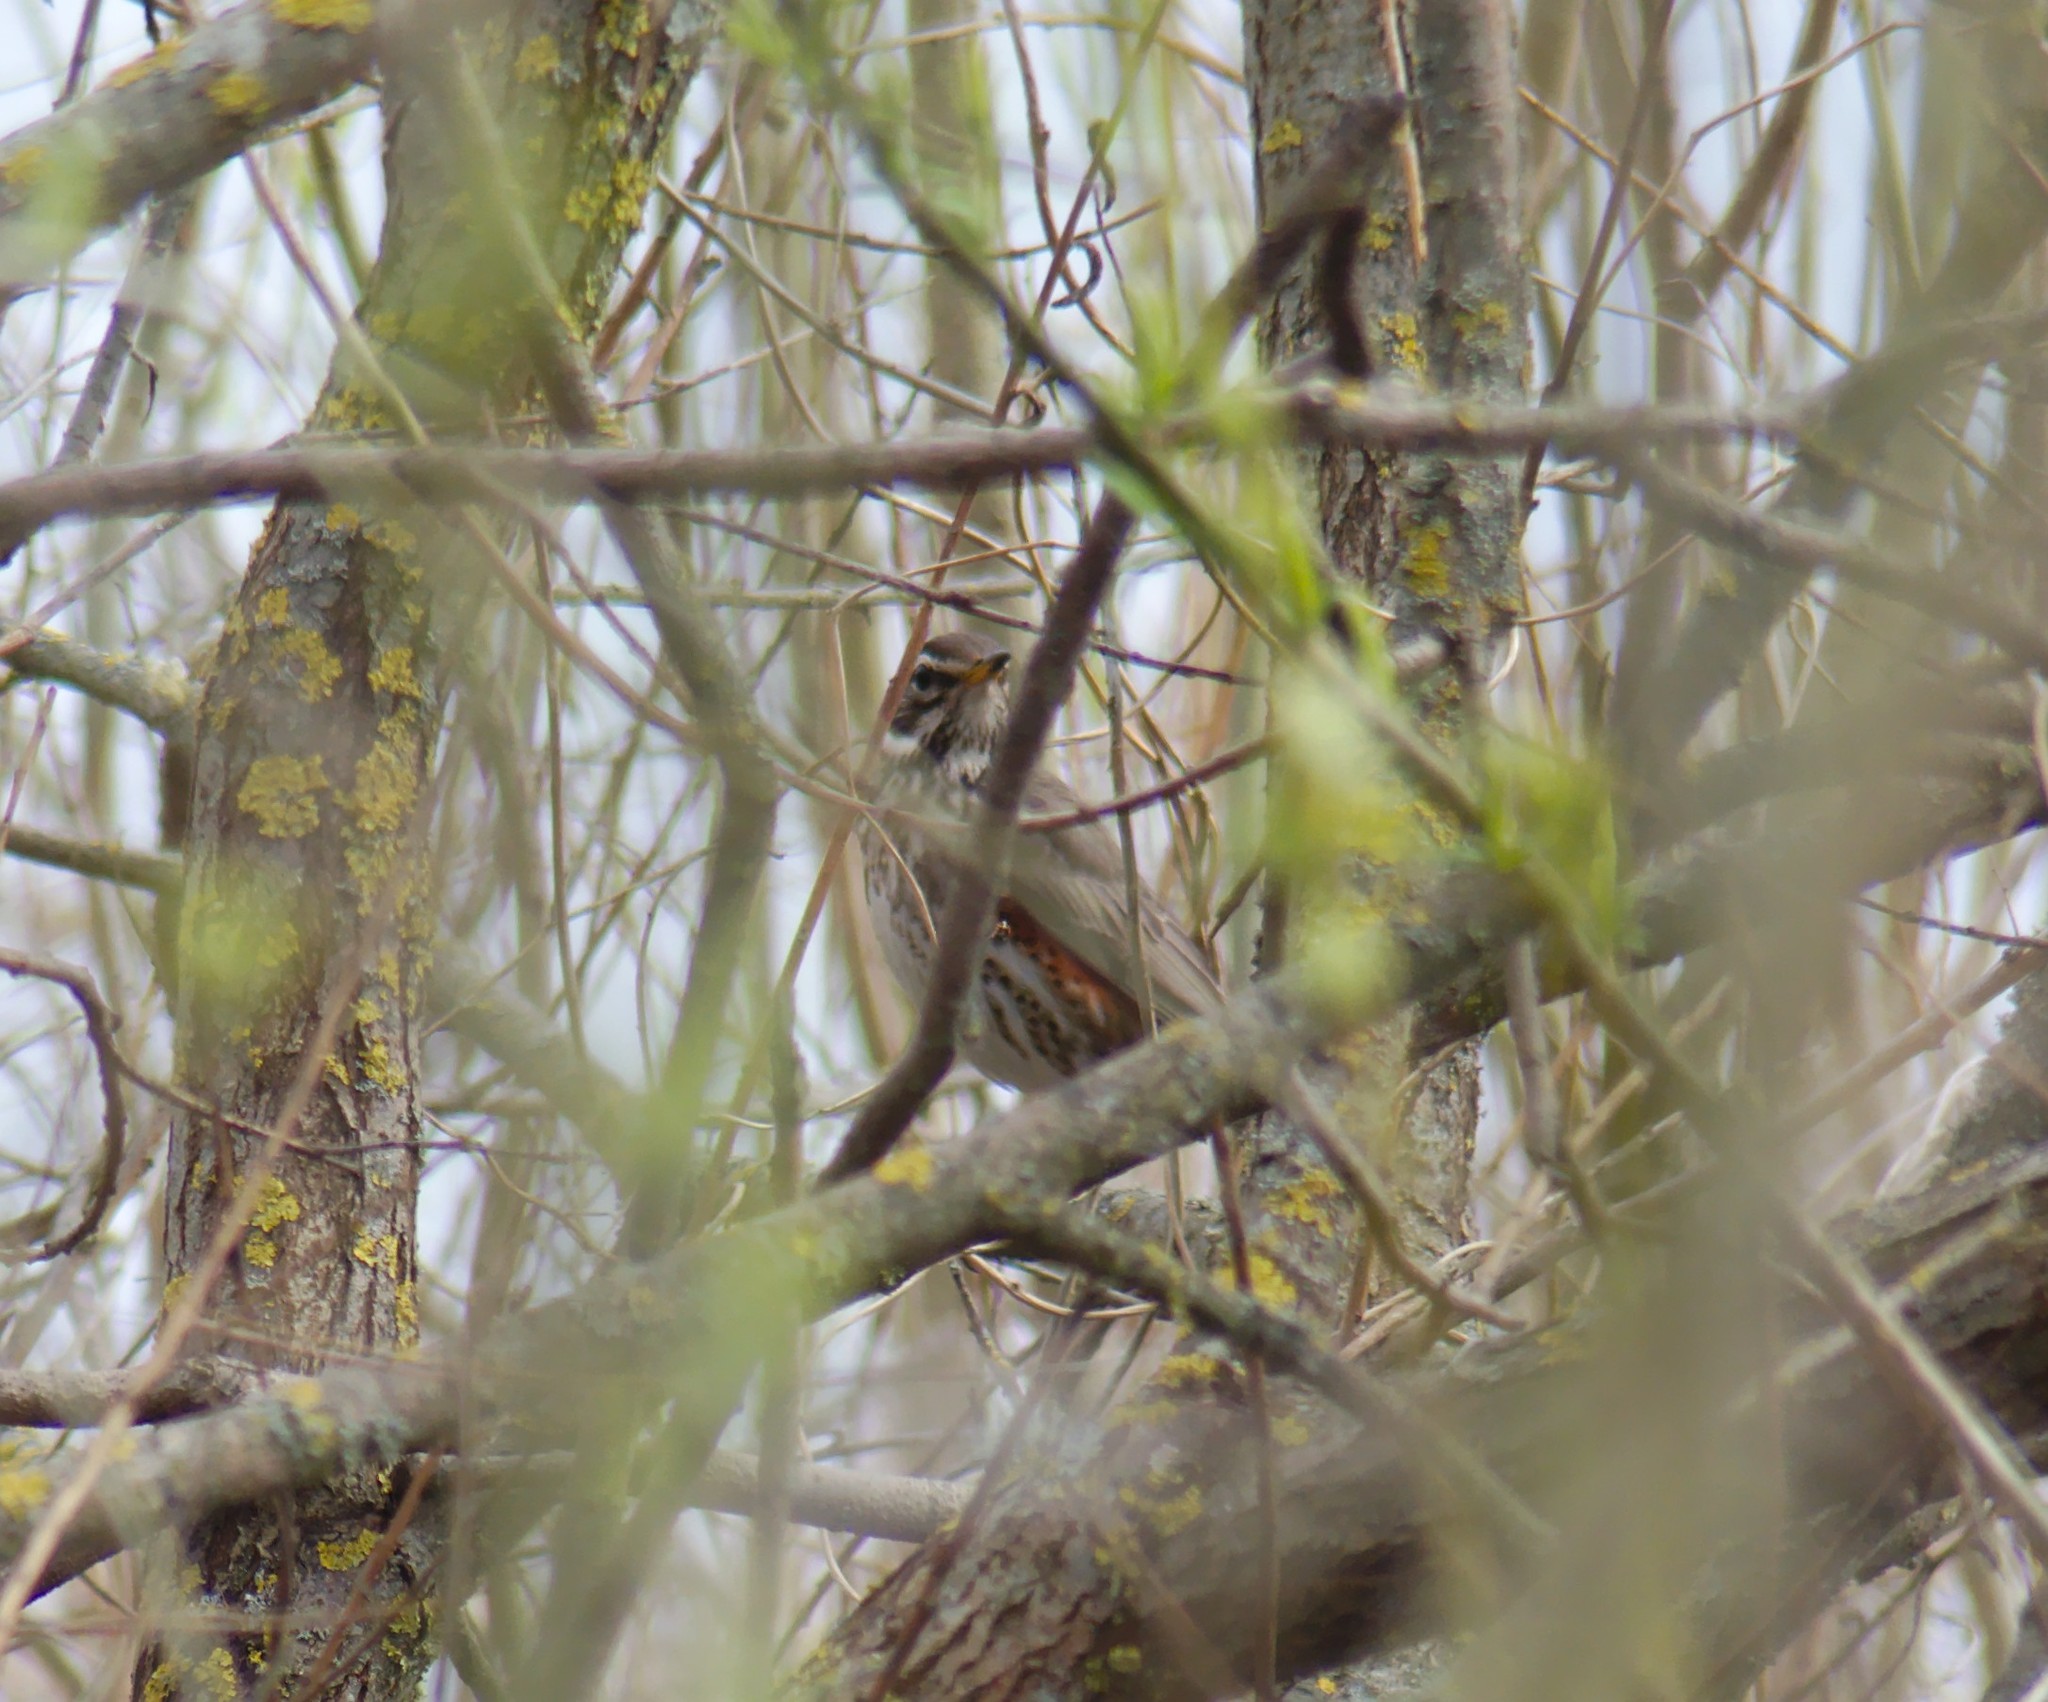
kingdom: Animalia
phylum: Chordata
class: Aves
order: Passeriformes
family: Turdidae
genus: Turdus
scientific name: Turdus iliacus
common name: Redwing
